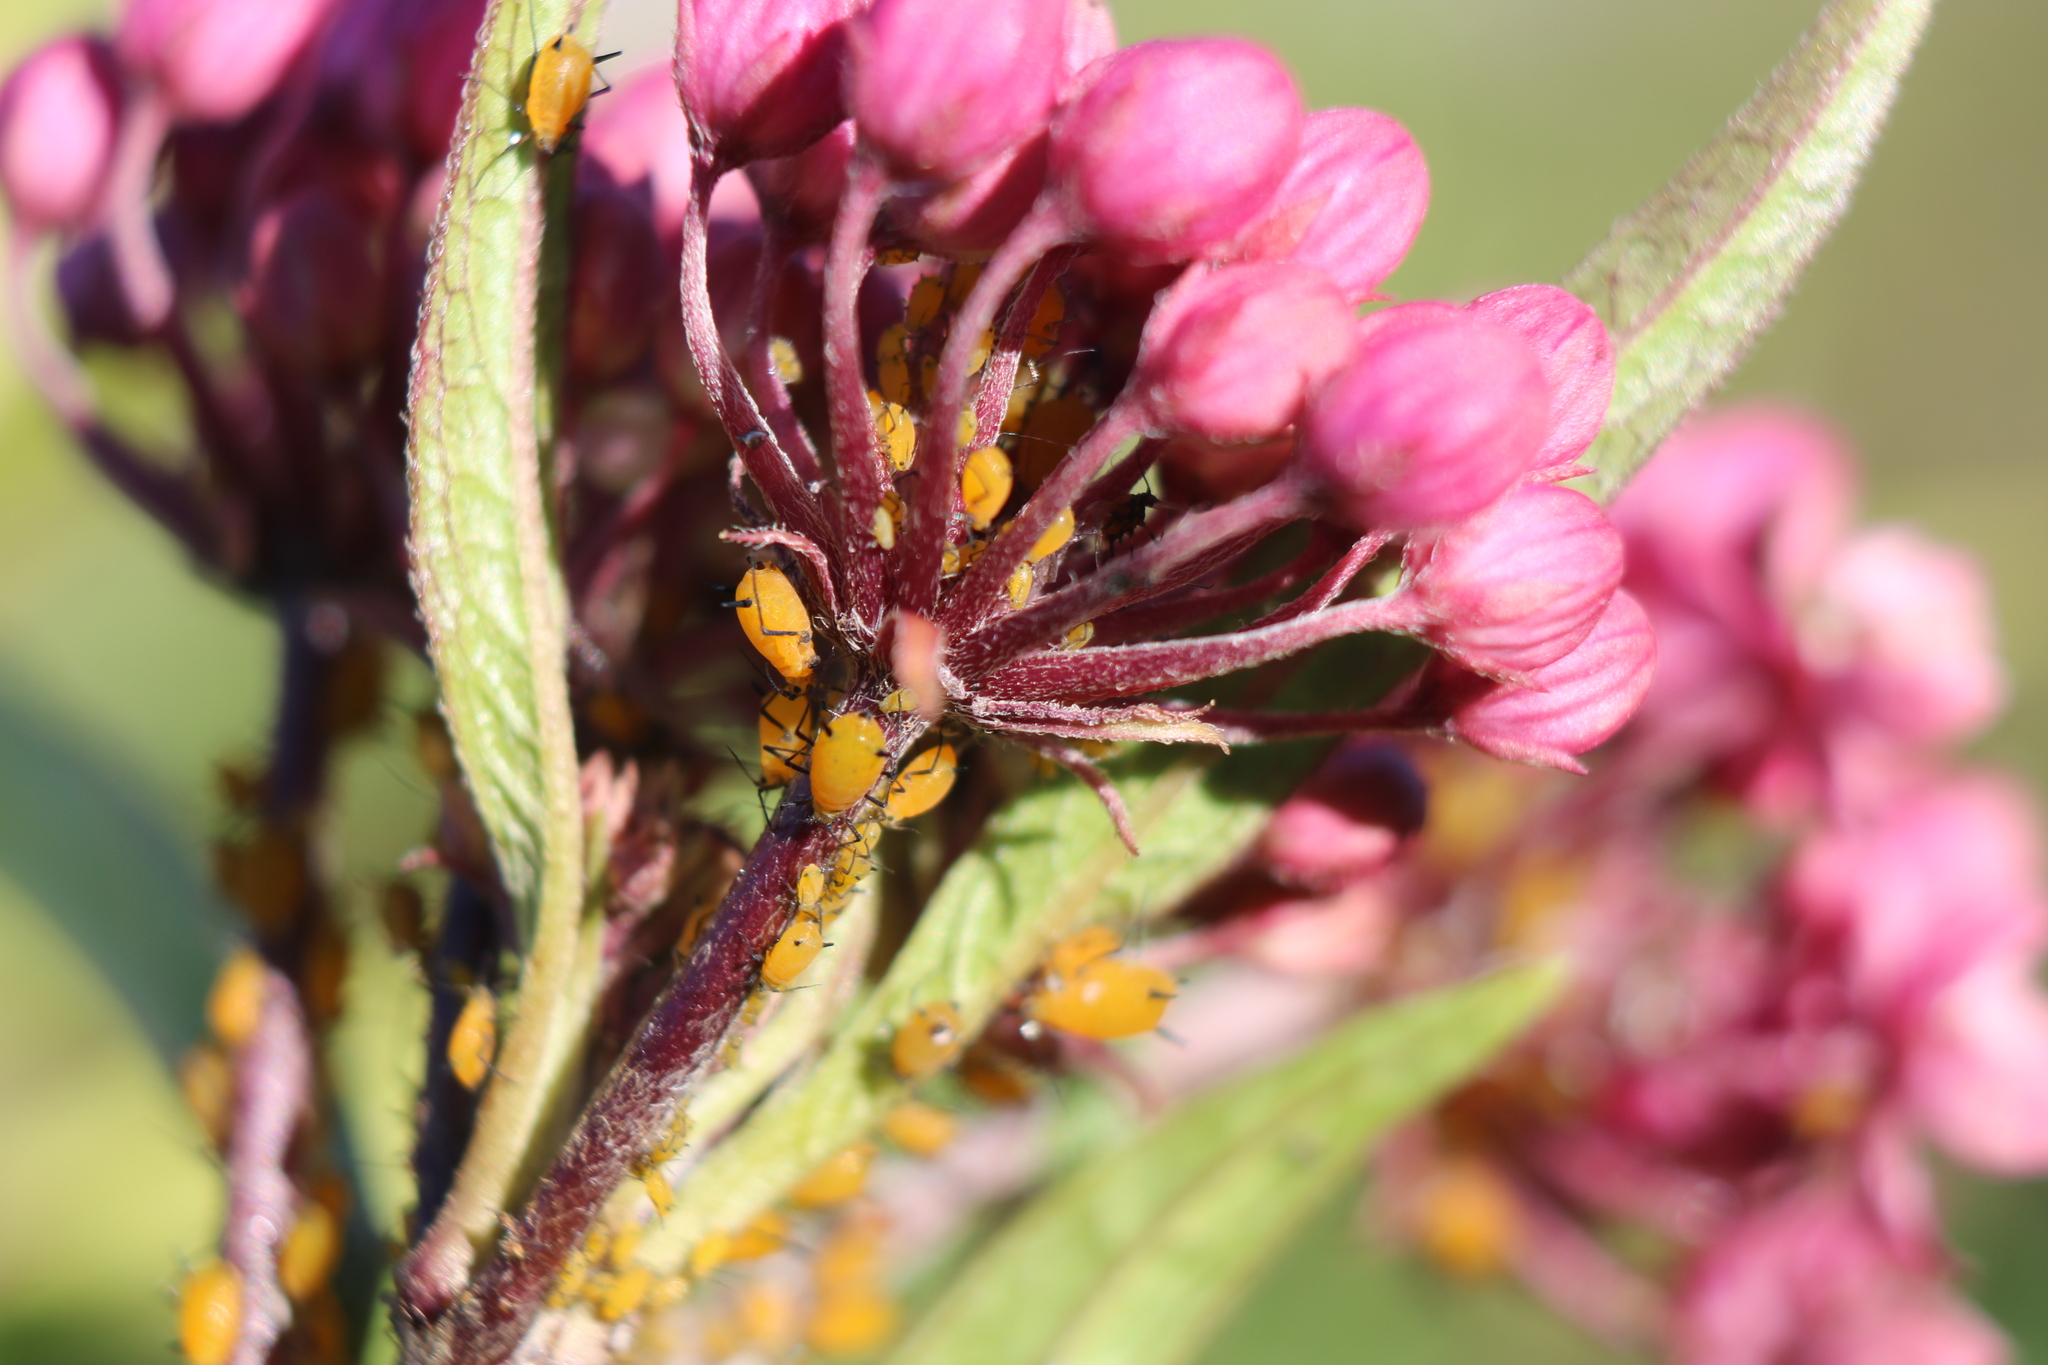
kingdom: Animalia
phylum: Arthropoda
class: Insecta
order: Hemiptera
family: Aphididae
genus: Aphis
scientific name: Aphis nerii
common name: Oleander aphid
